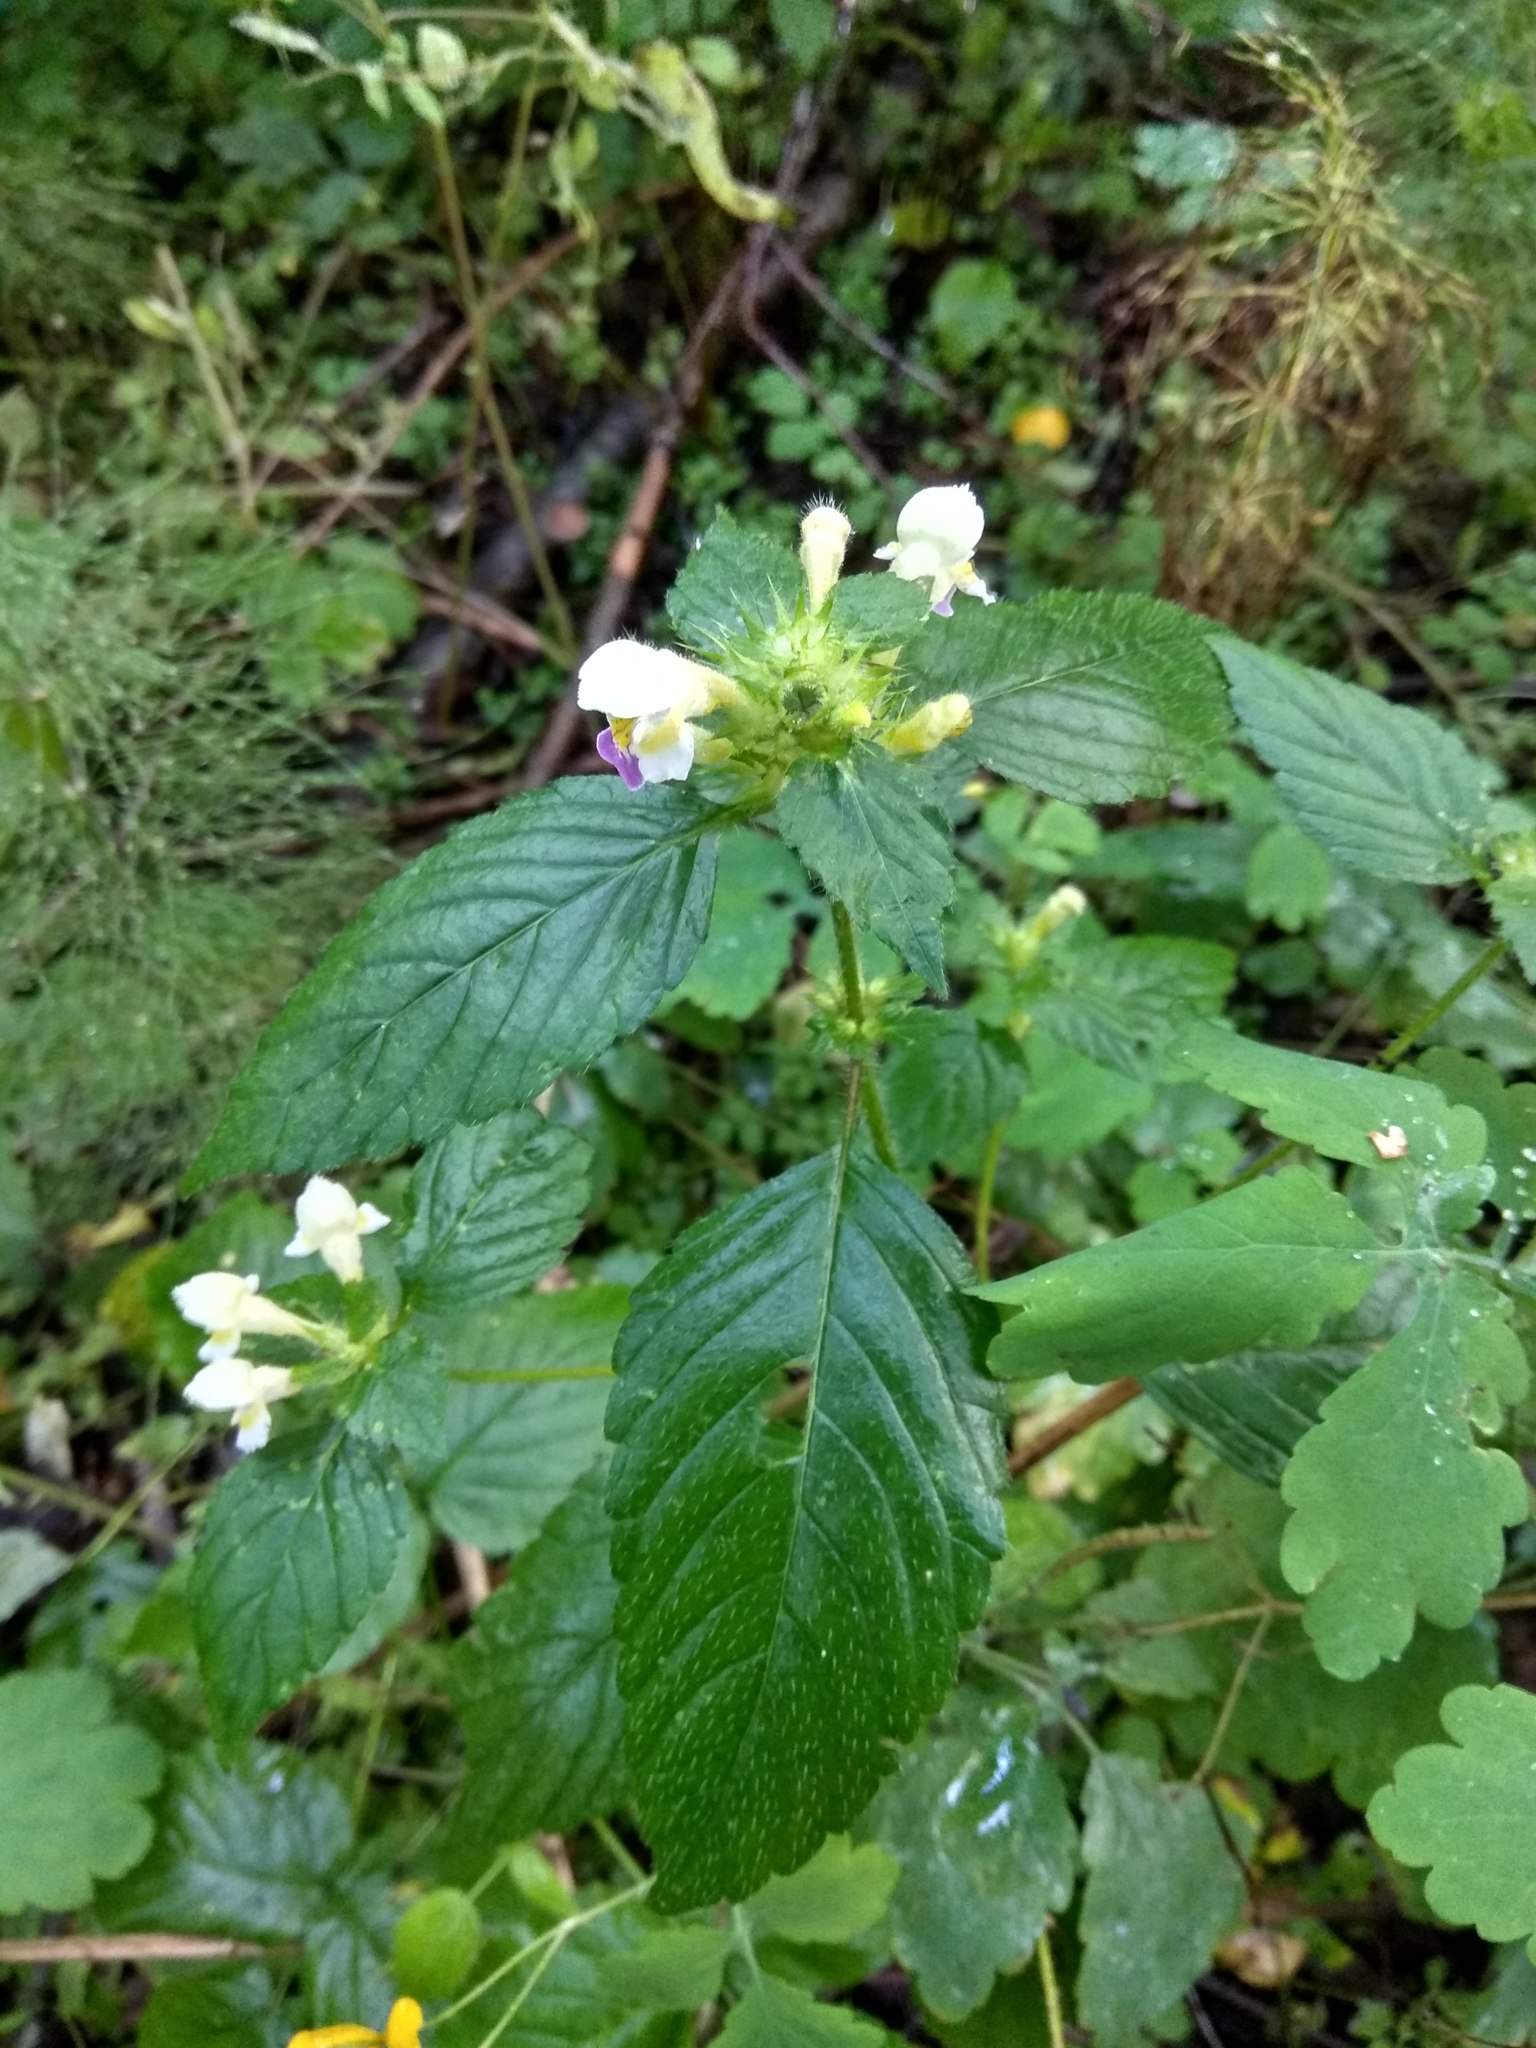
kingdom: Plantae
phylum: Tracheophyta
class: Magnoliopsida
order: Lamiales
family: Lamiaceae
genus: Galeopsis
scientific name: Galeopsis speciosa
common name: Large-flowered hemp-nettle
